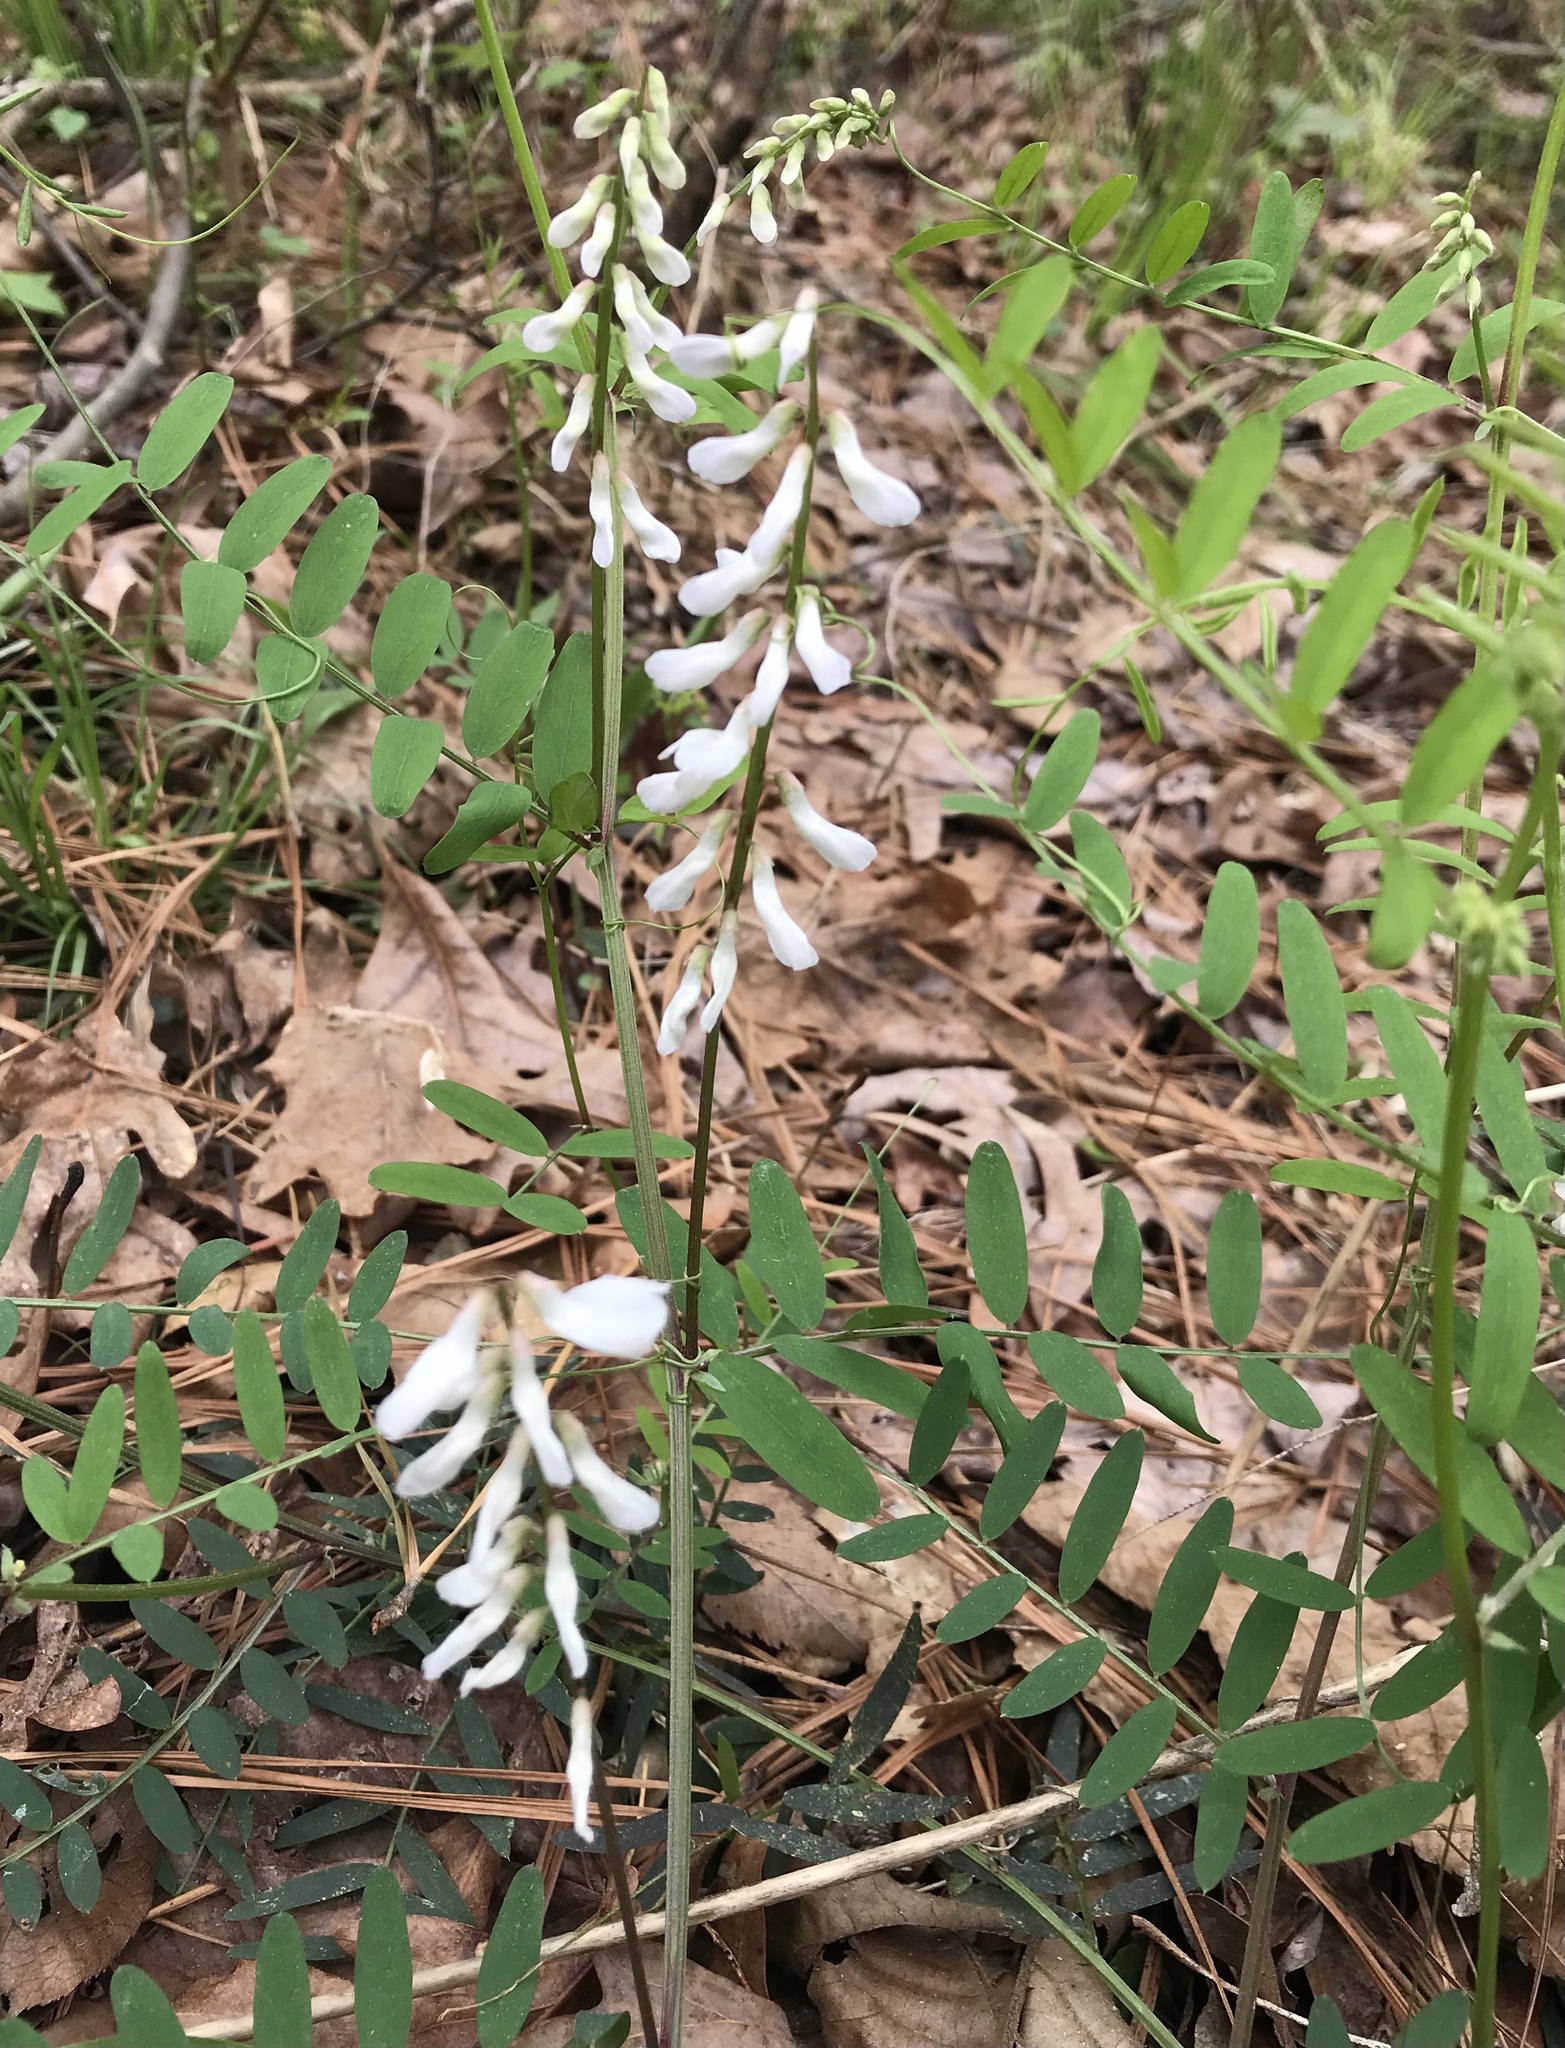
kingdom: Plantae
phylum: Tracheophyta
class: Magnoliopsida
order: Fabales
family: Fabaceae
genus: Vicia
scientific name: Vicia caroliniana
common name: Carolina vetch
